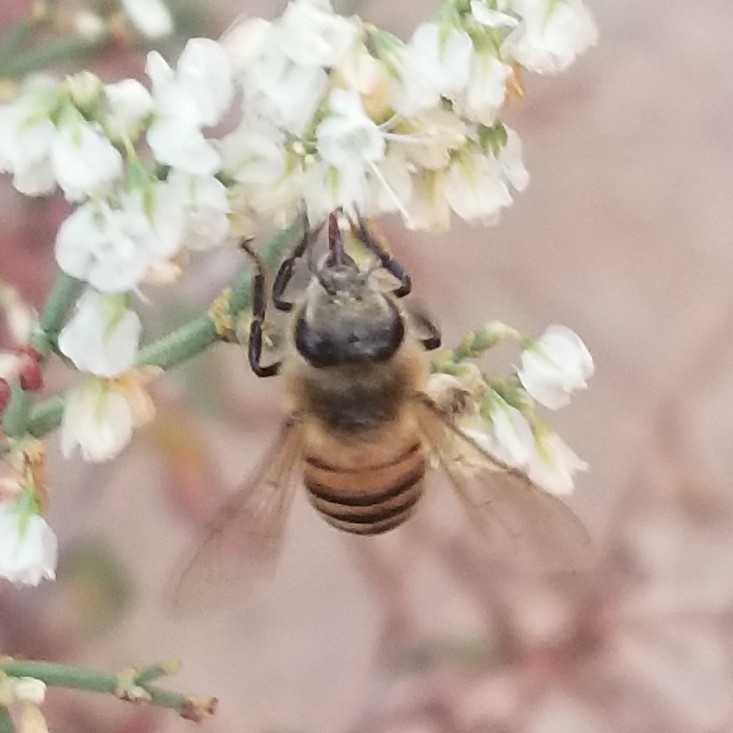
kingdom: Animalia
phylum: Arthropoda
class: Insecta
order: Hymenoptera
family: Apidae
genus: Apis
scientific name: Apis mellifera
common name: Honey bee
